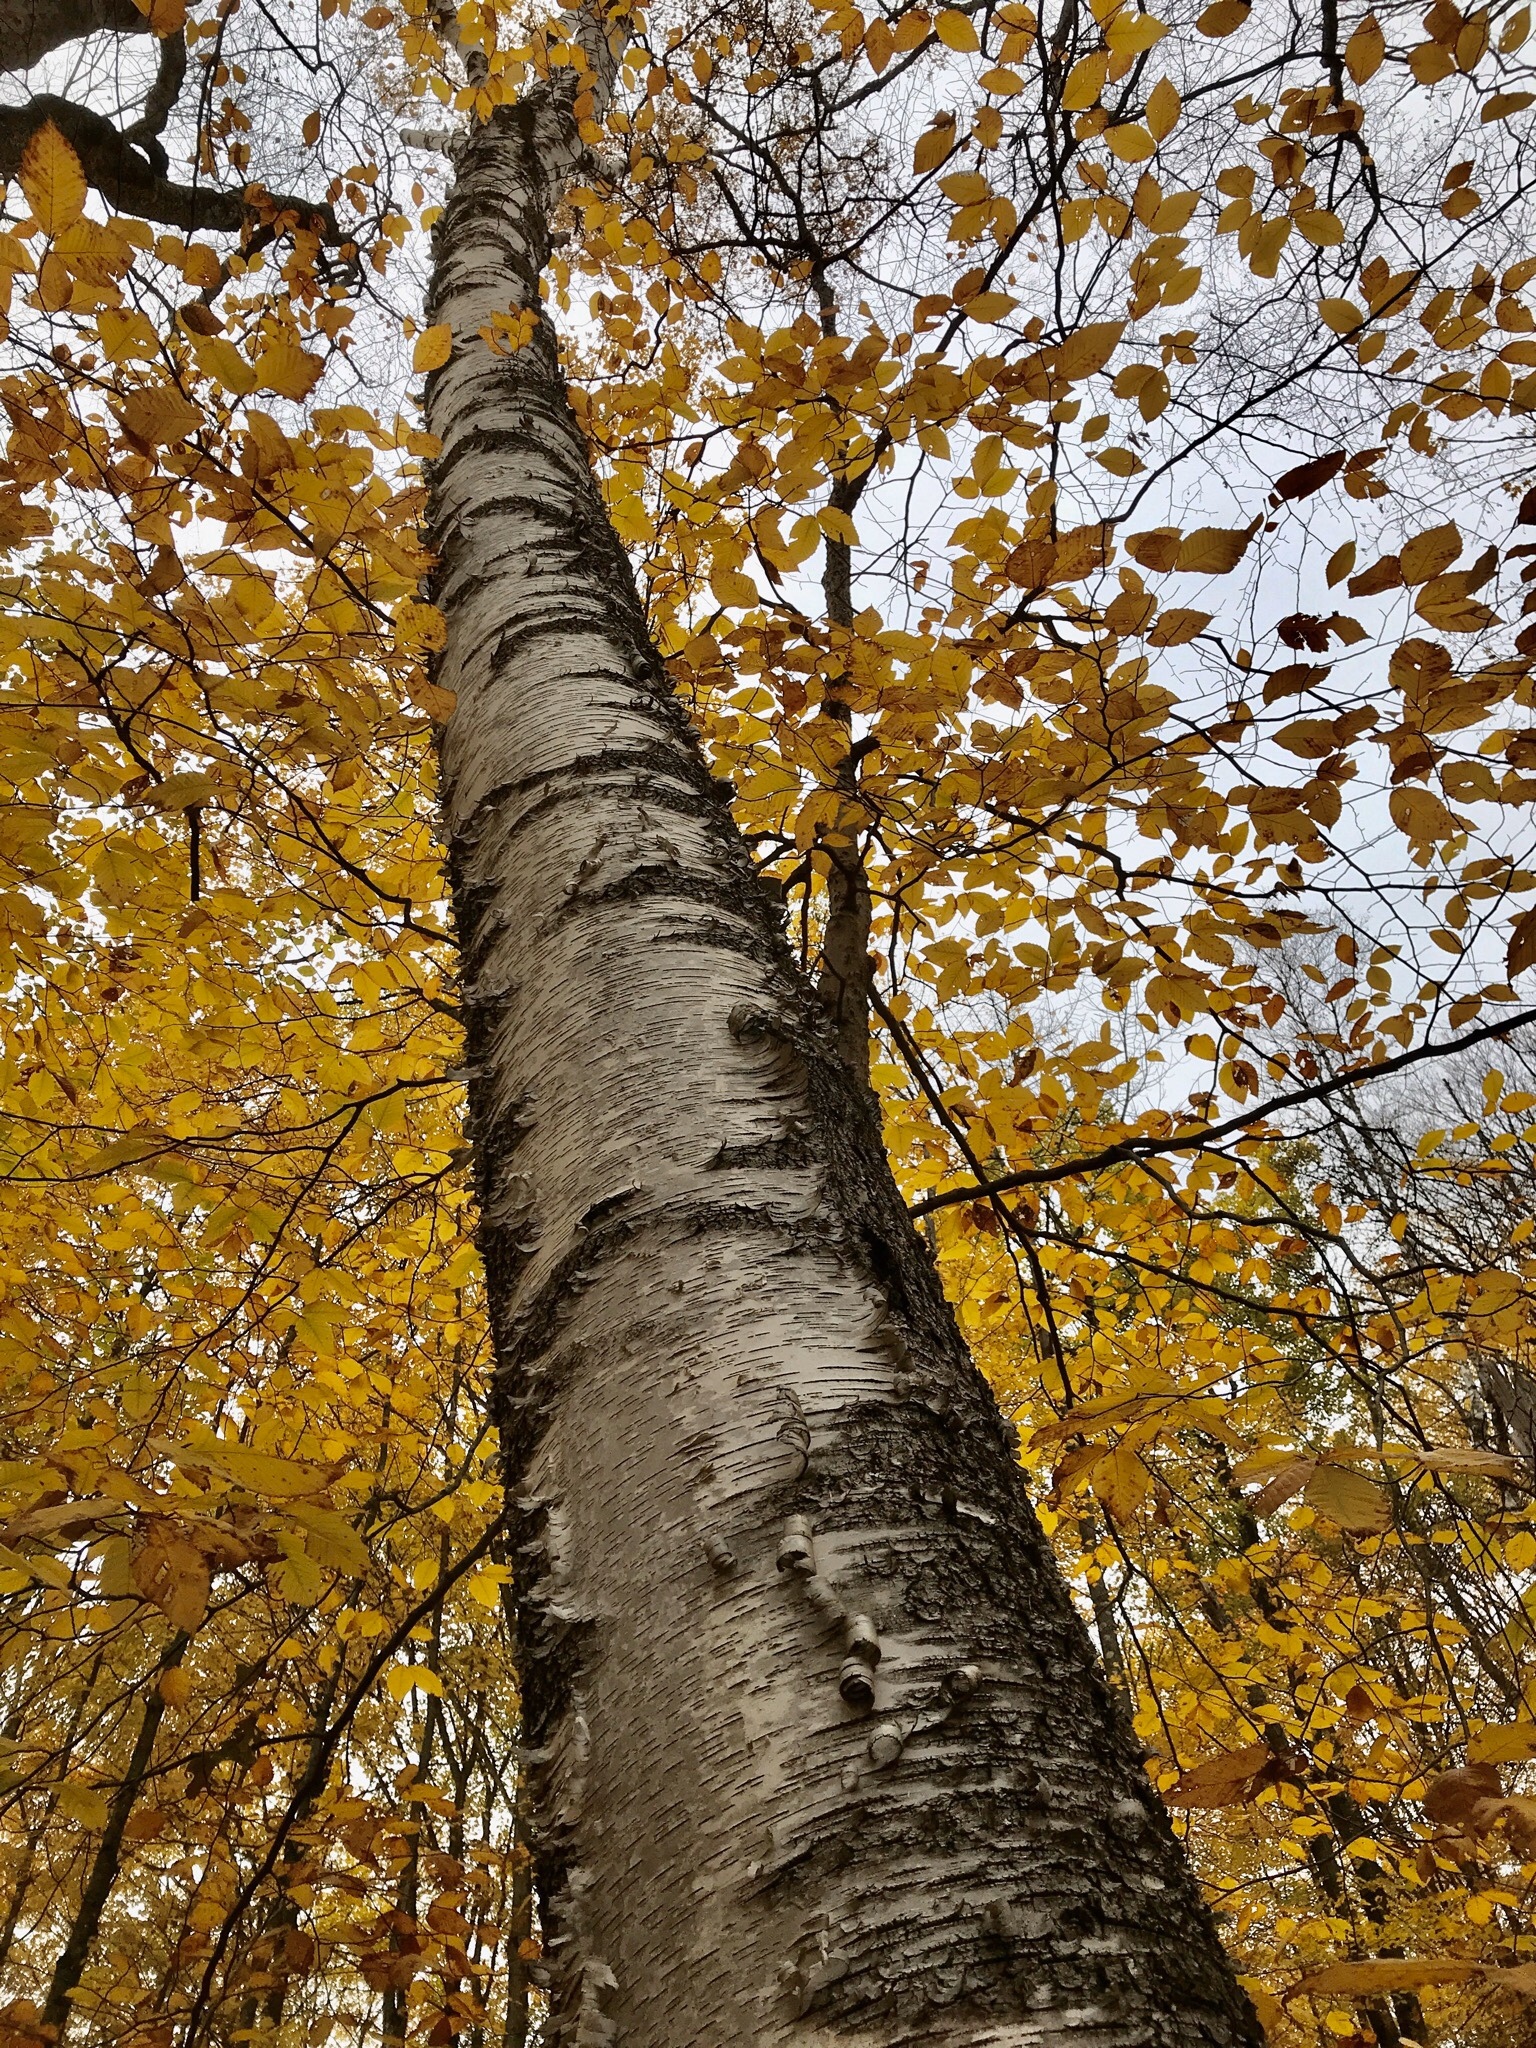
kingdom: Plantae
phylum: Tracheophyta
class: Magnoliopsida
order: Fagales
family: Betulaceae
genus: Betula
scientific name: Betula papyrifera
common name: Paper birch
